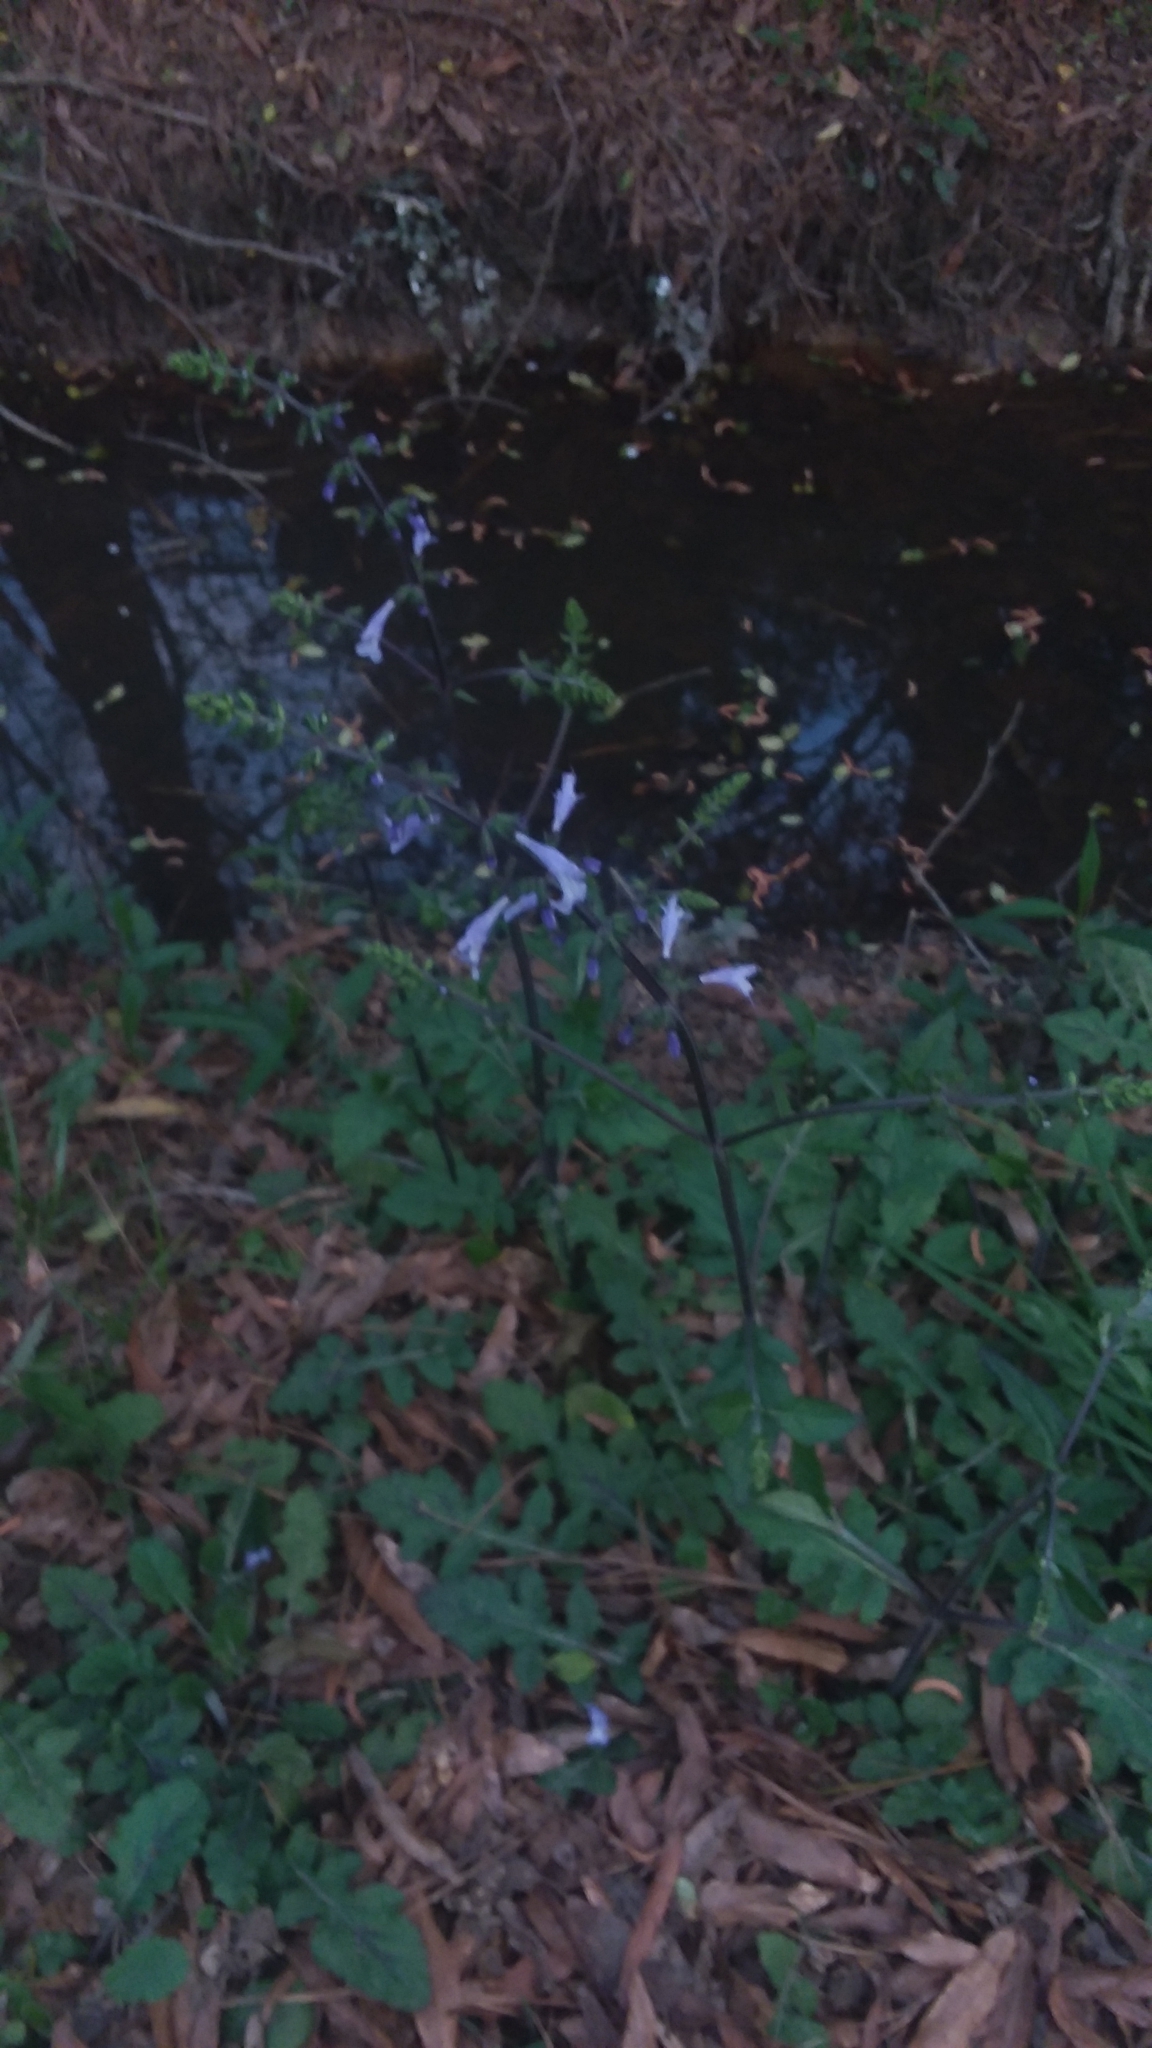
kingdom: Plantae
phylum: Tracheophyta
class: Magnoliopsida
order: Lamiales
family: Lamiaceae
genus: Salvia
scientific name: Salvia lyrata
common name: Cancerweed
